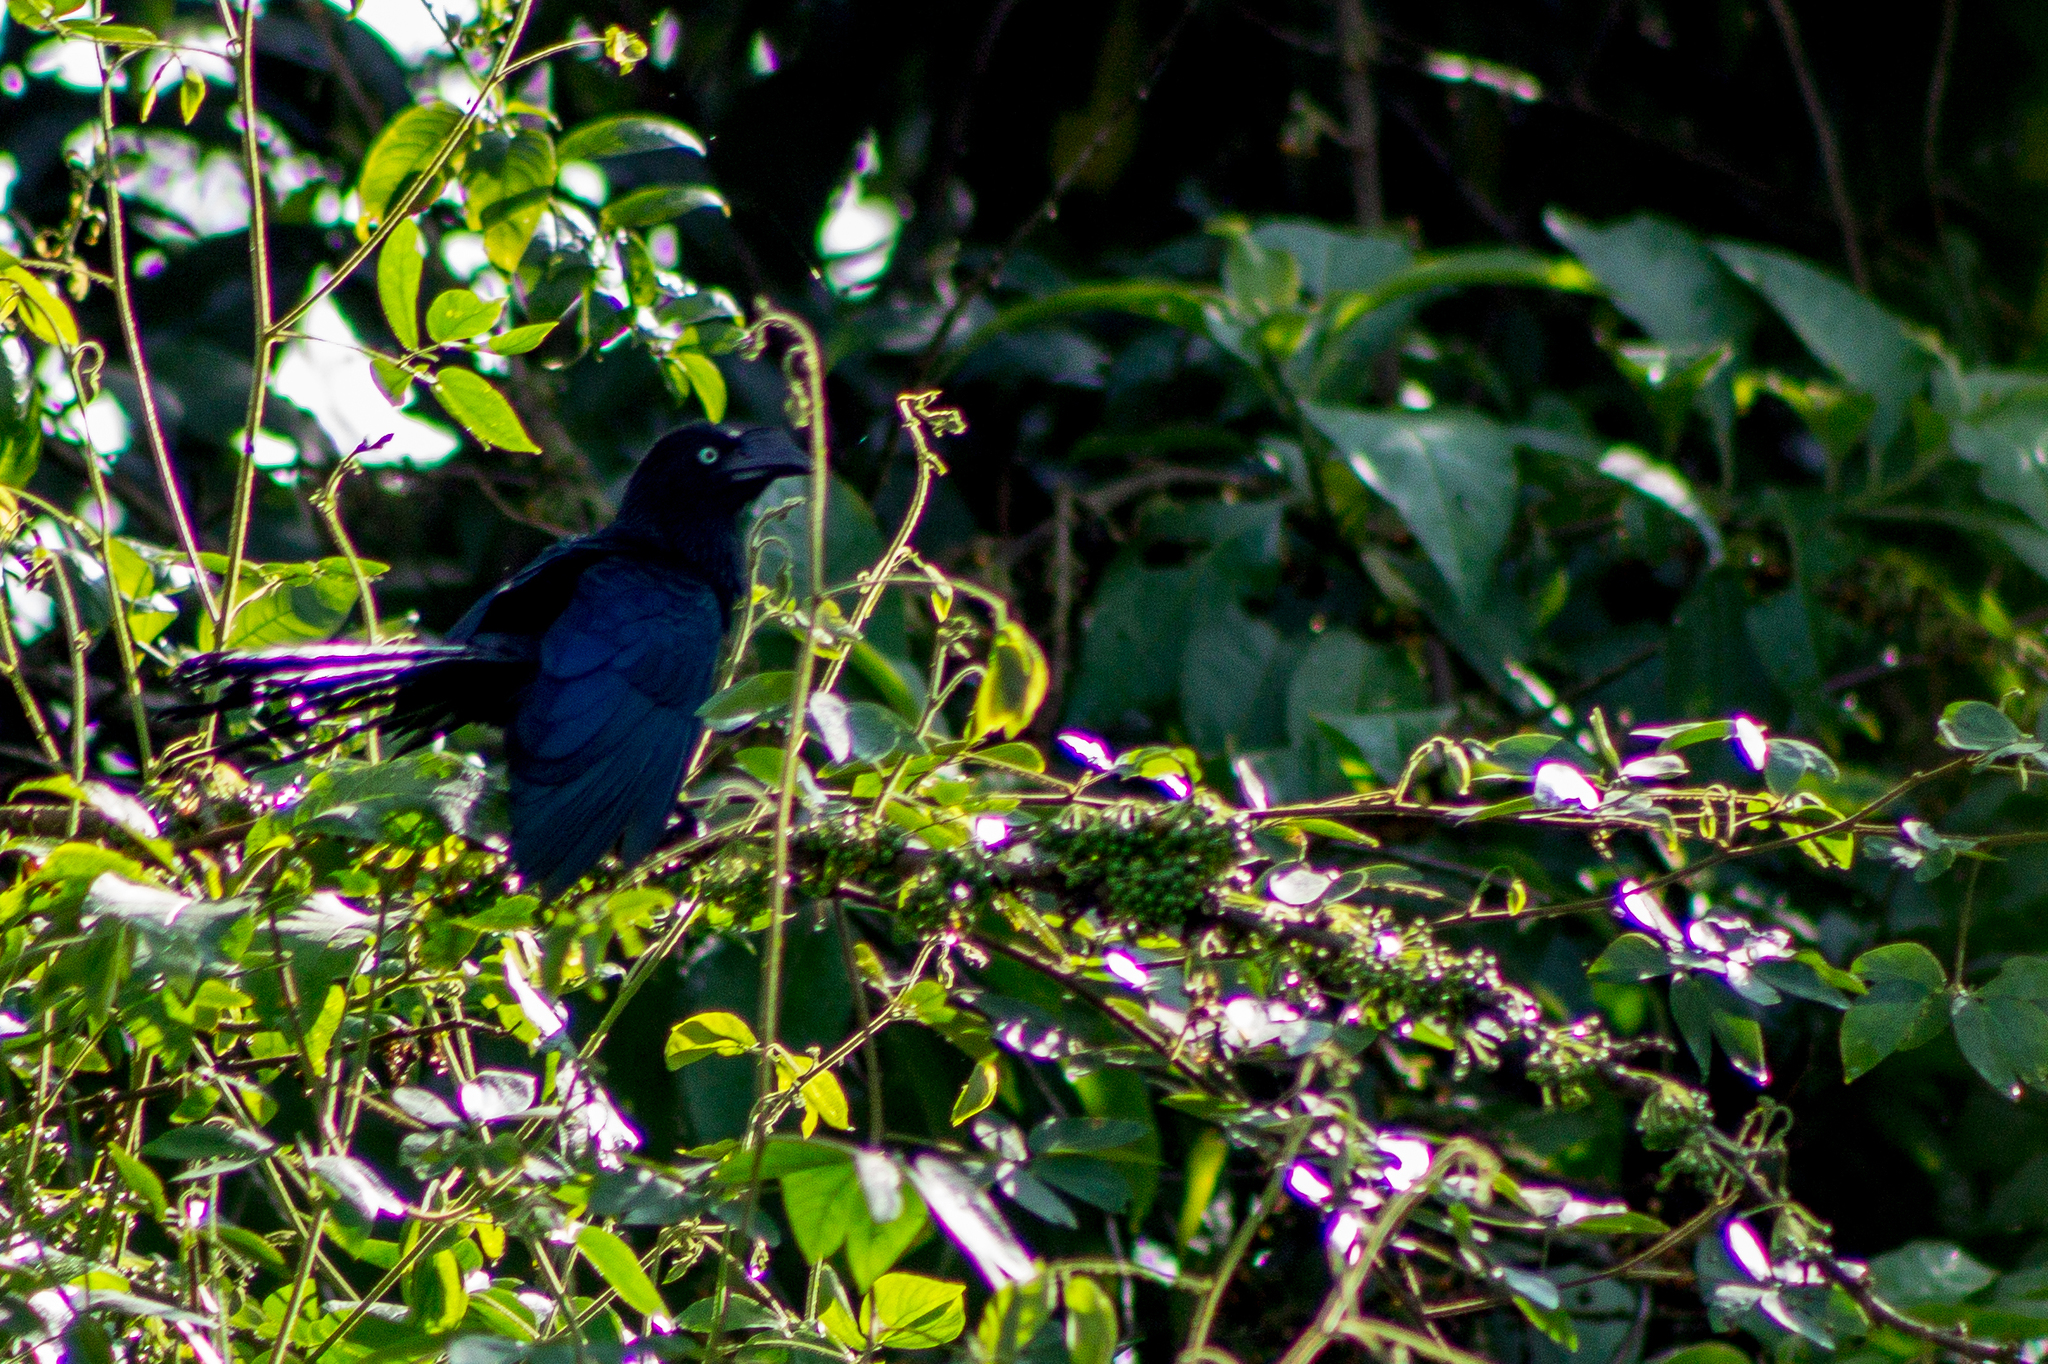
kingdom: Animalia
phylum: Chordata
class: Aves
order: Cuculiformes
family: Cuculidae
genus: Crotophaga
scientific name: Crotophaga major
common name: Greater ani
